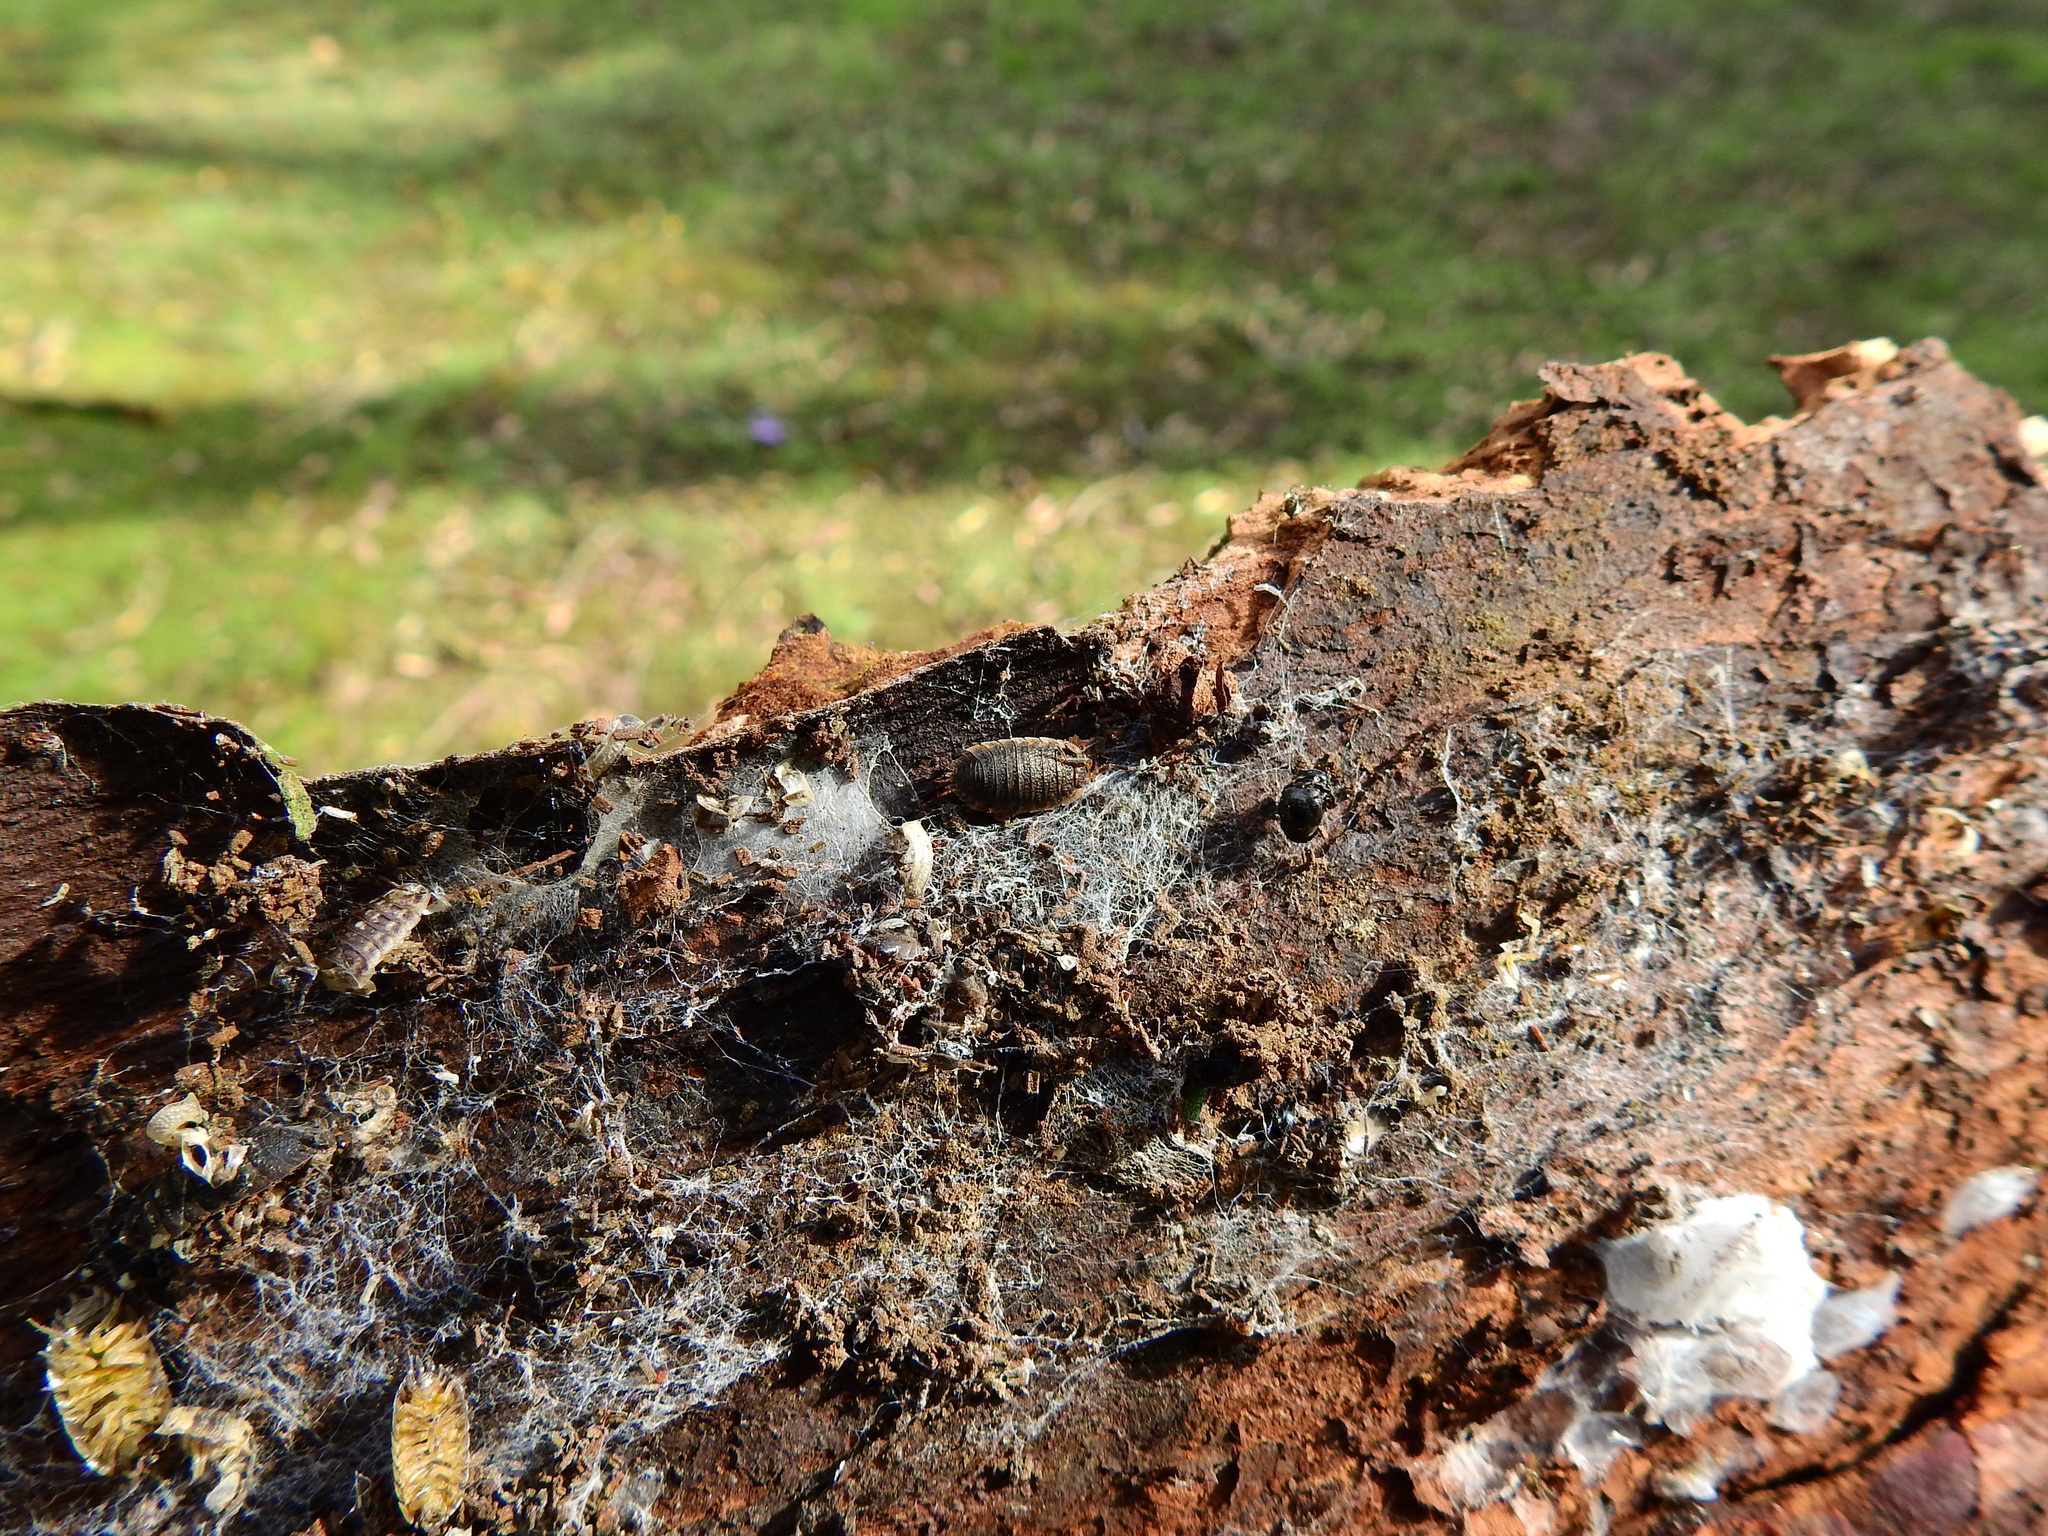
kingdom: Animalia
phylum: Arthropoda
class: Malacostraca
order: Isopoda
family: Porcellionidae
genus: Porcellio
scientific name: Porcellio scaber
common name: Common rough woodlouse
